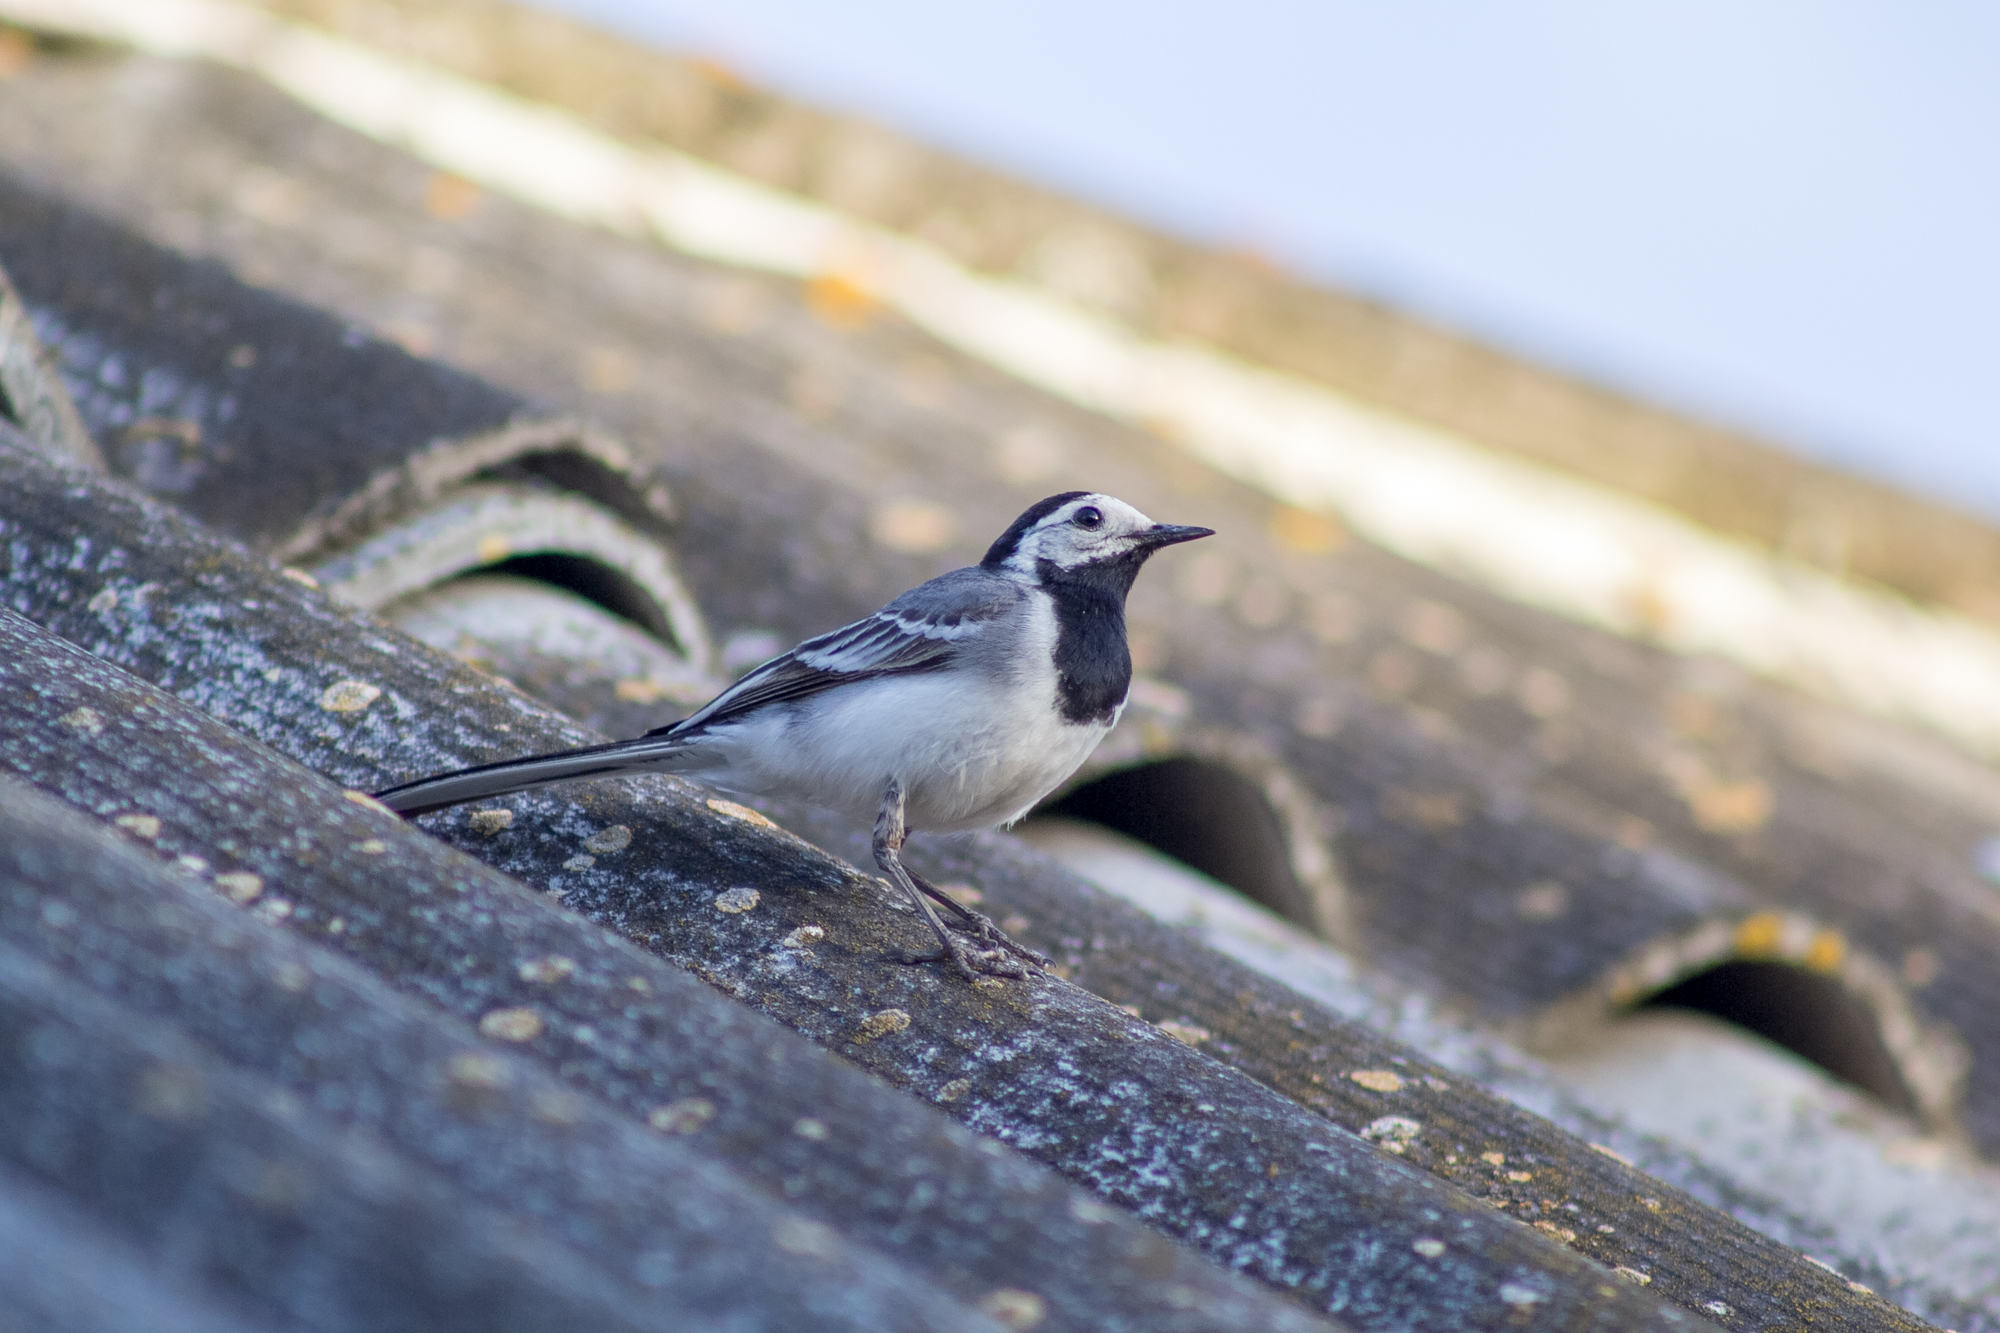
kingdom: Animalia
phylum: Chordata
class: Aves
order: Passeriformes
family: Motacillidae
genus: Motacilla
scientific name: Motacilla alba
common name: White wagtail
